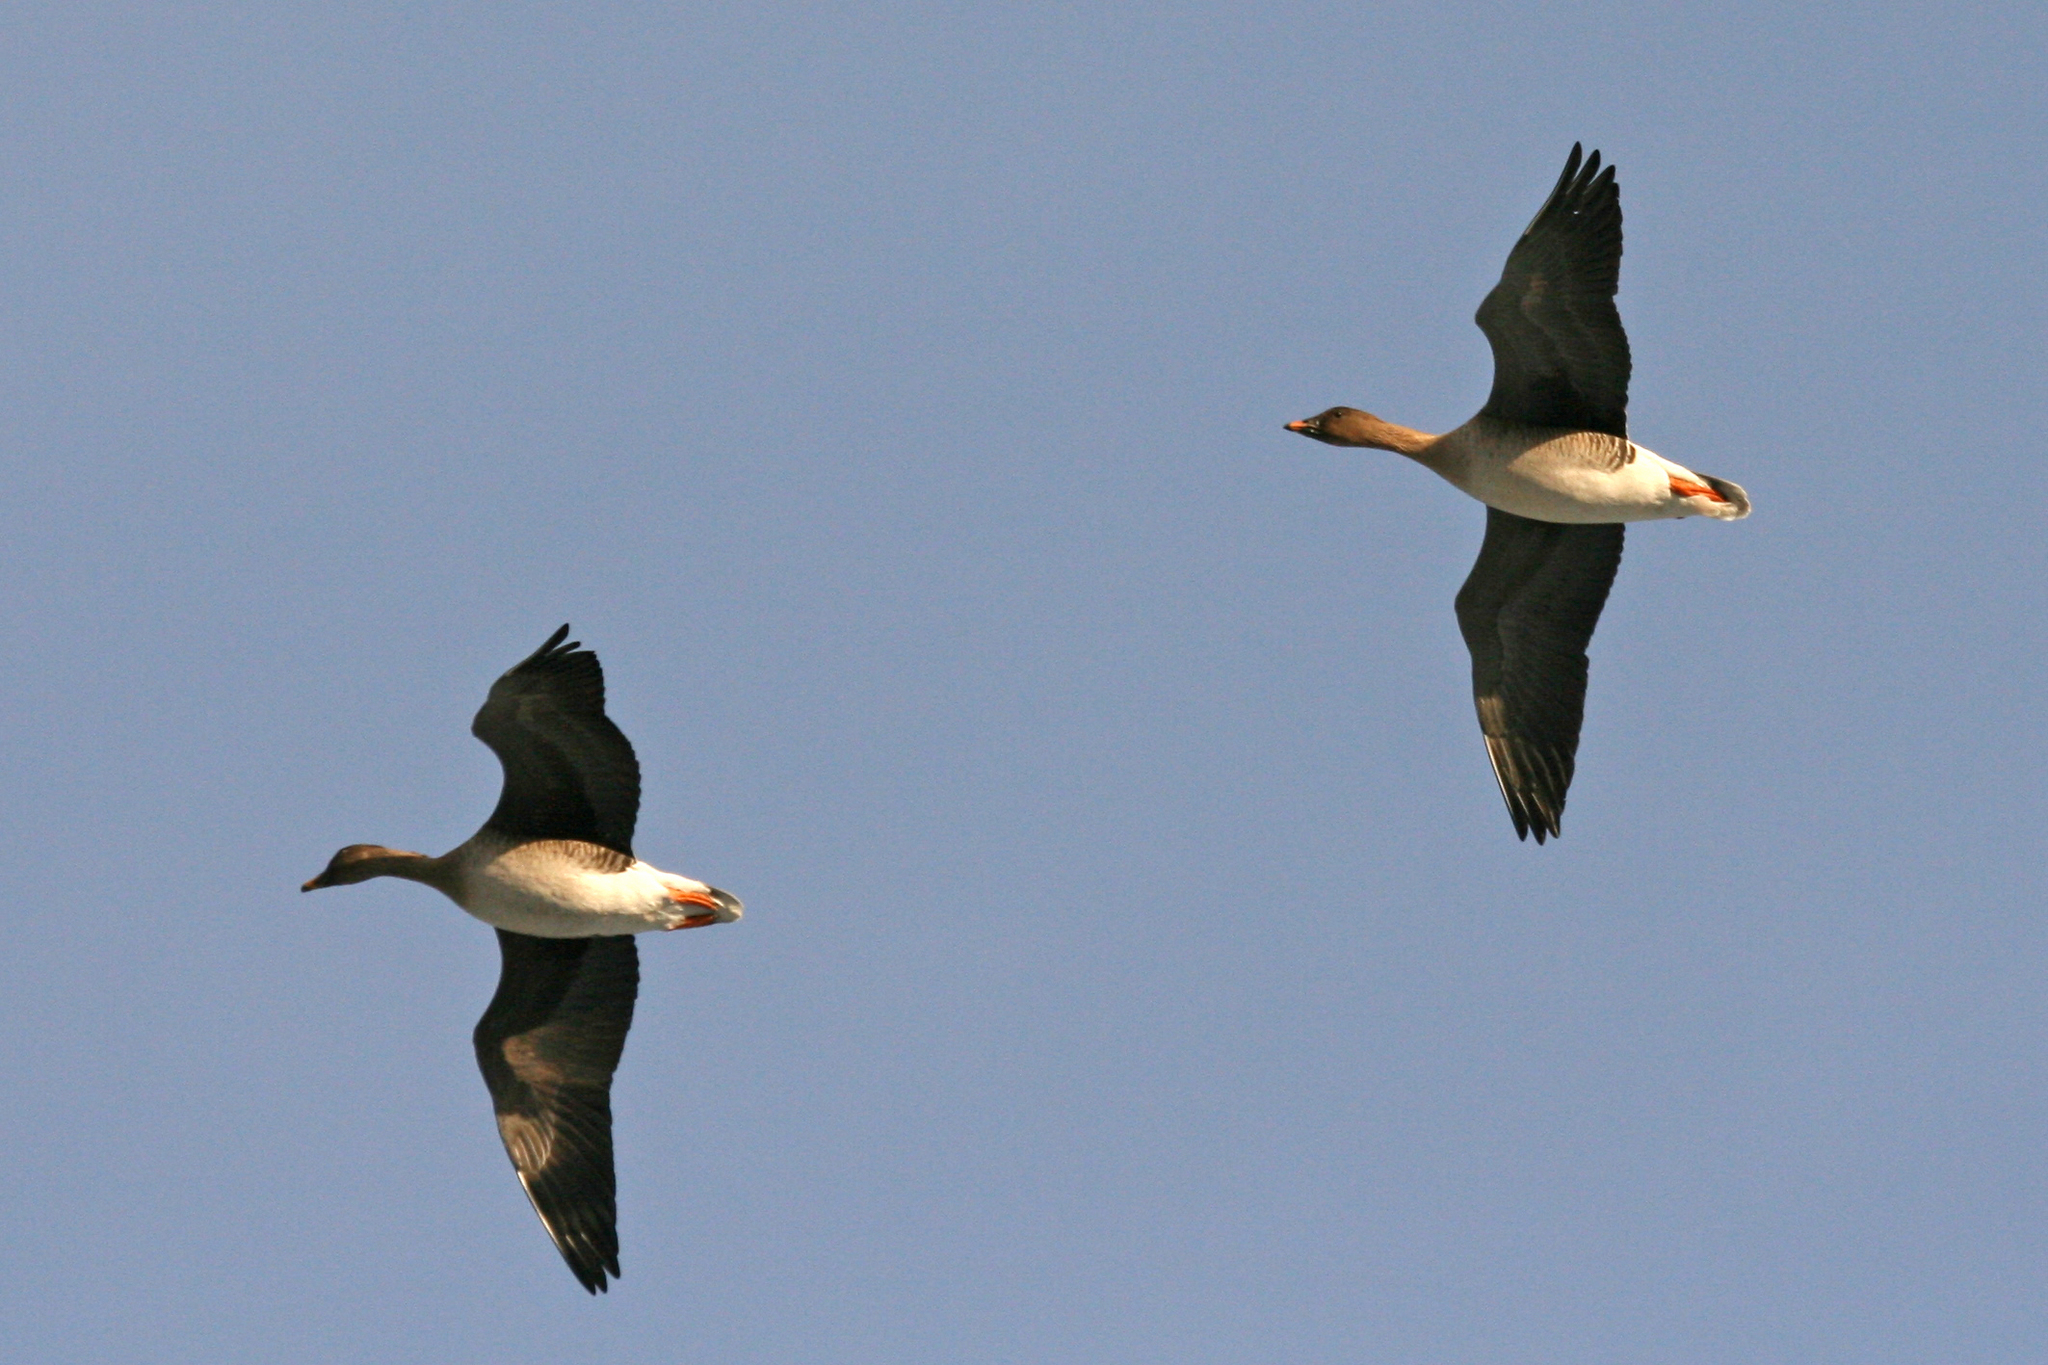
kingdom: Animalia
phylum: Chordata
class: Aves
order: Anseriformes
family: Anatidae
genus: Anser
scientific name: Anser serrirostris
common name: Tundra bean goose
